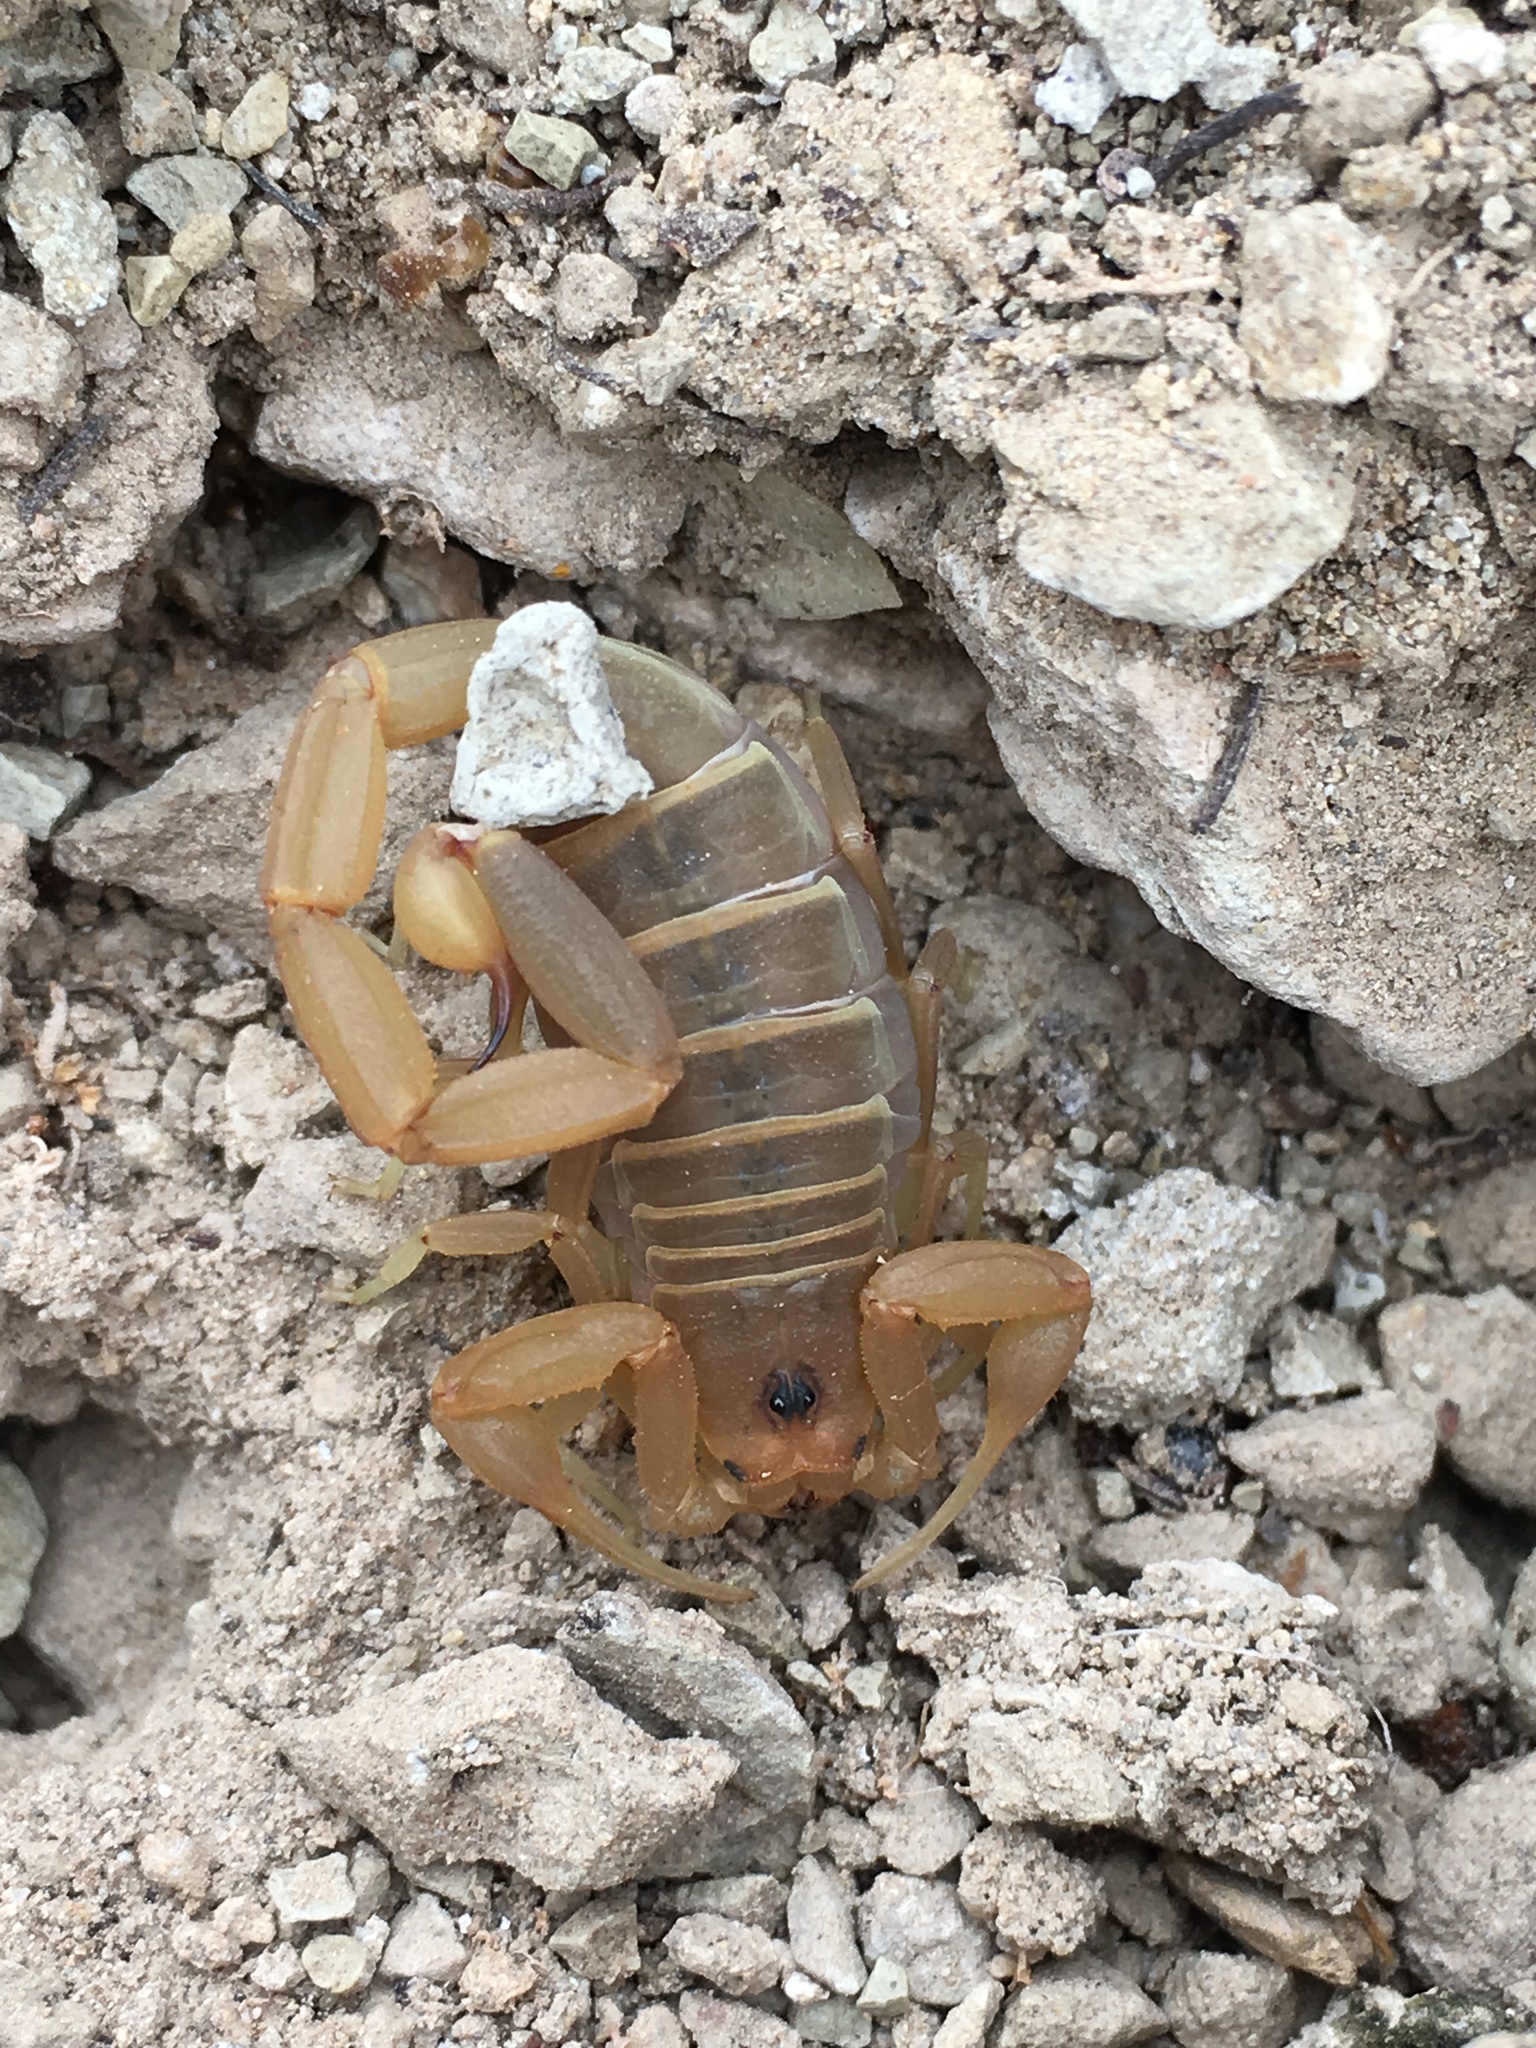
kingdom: Animalia
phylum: Arthropoda
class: Arachnida
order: Scorpiones
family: Buthidae
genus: Centruroides
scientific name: Centruroides vittatus
